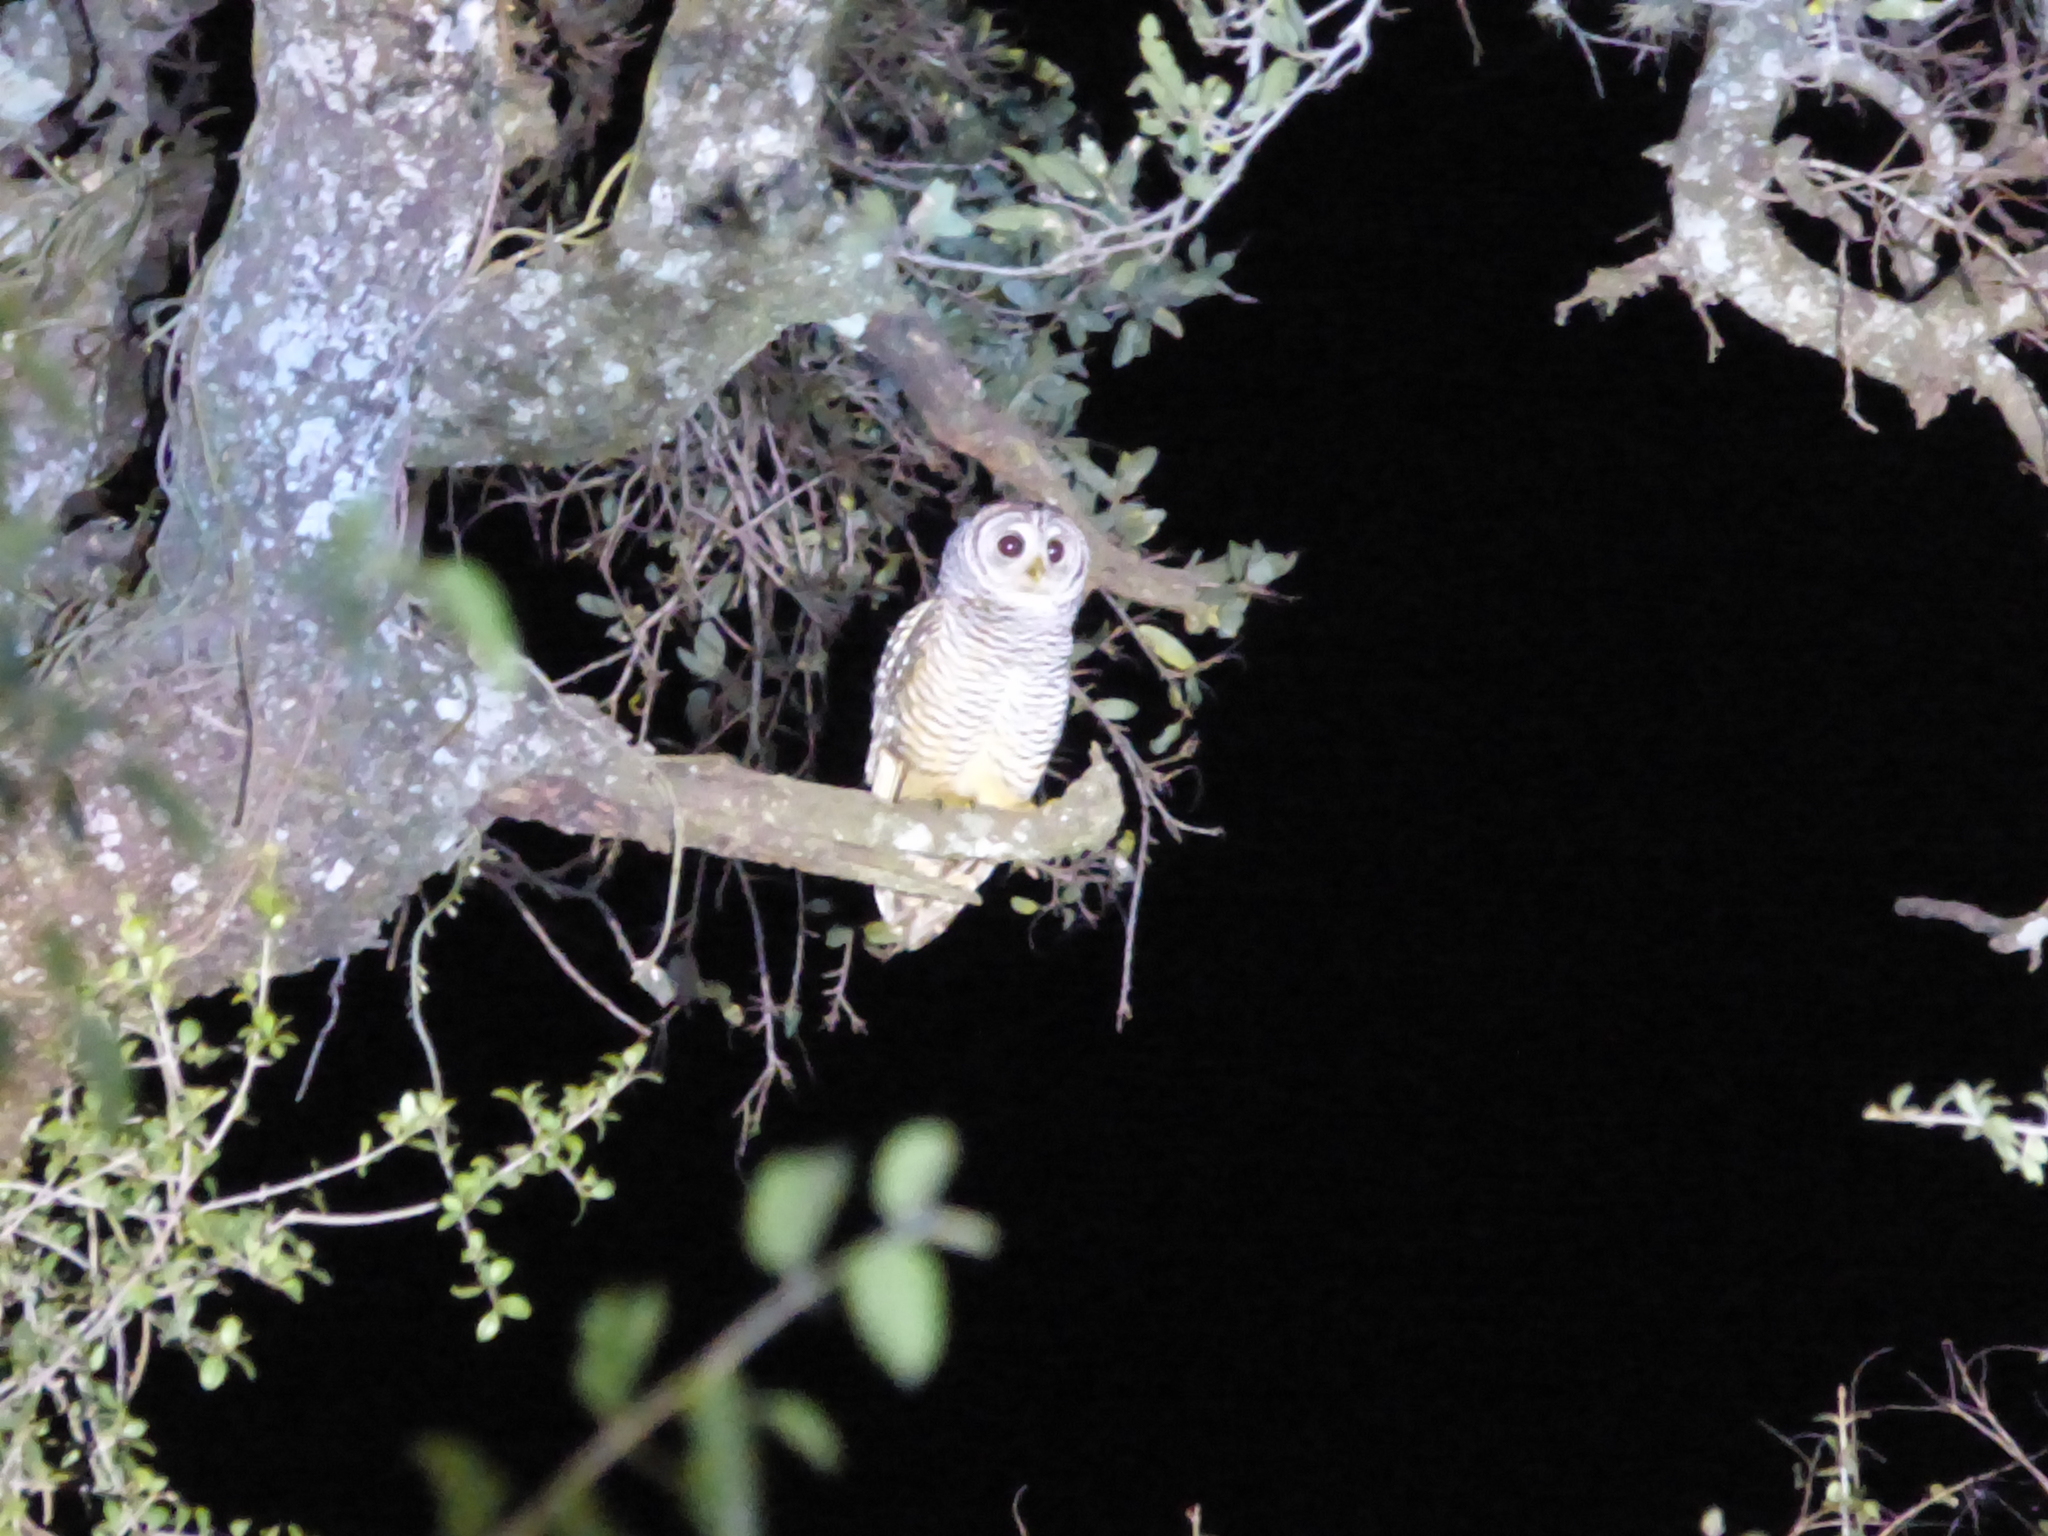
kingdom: Animalia
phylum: Chordata
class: Aves
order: Strigiformes
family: Strigidae
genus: Strix
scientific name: Strix chacoensis
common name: Chaco owl
